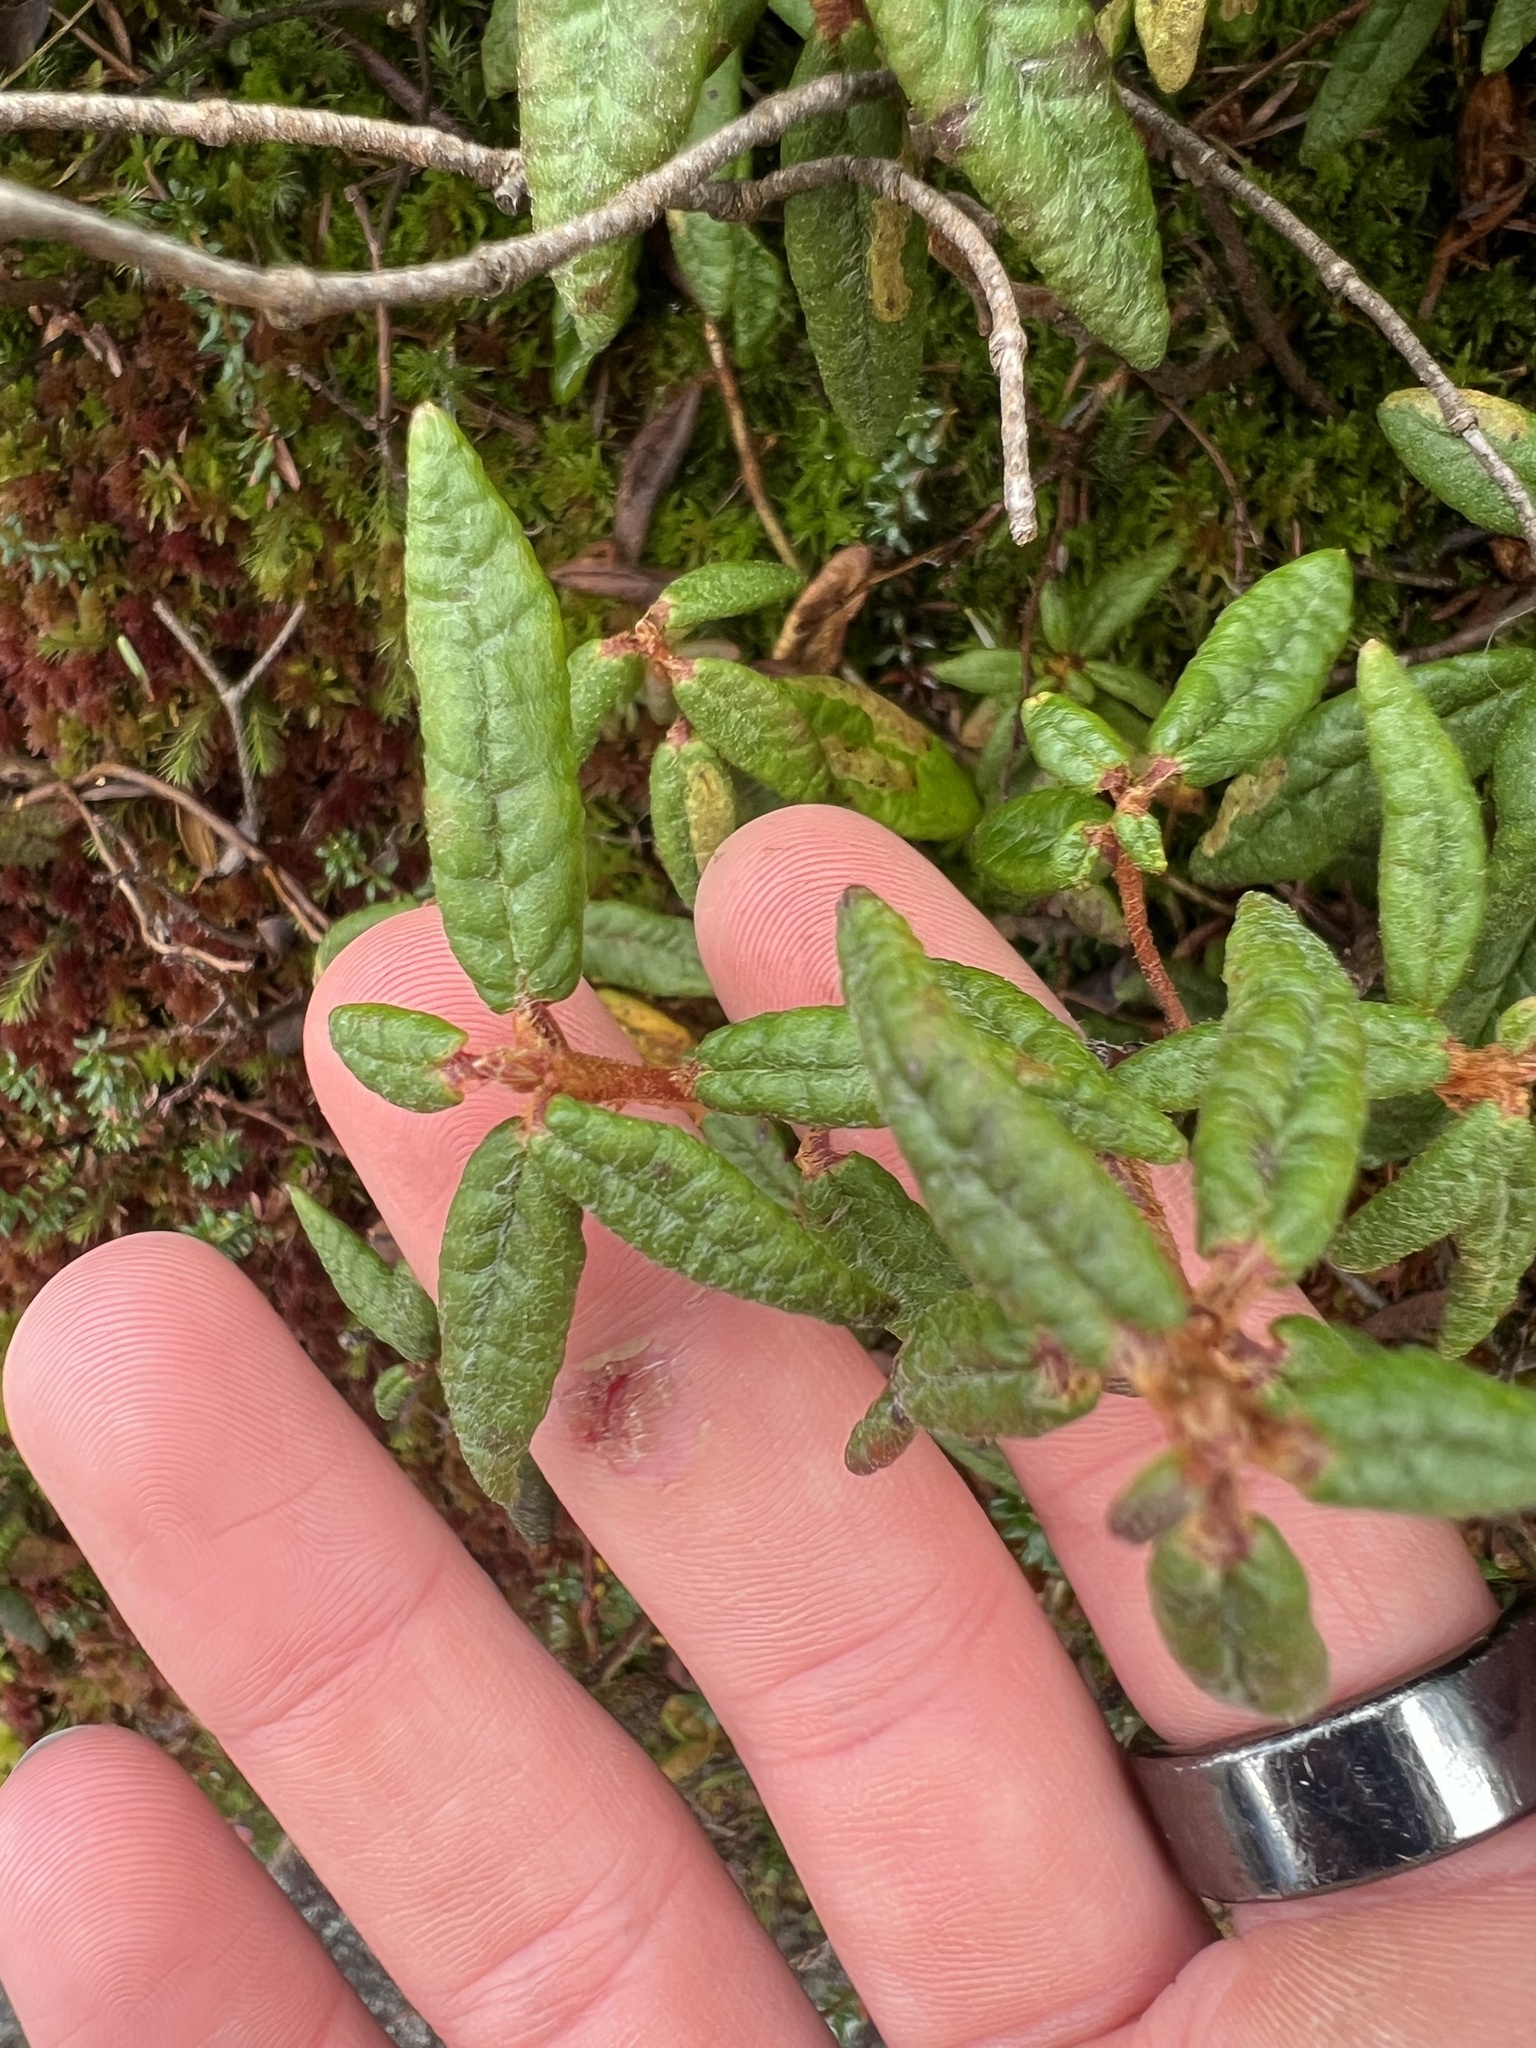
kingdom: Plantae
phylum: Tracheophyta
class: Magnoliopsida
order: Ericales
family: Ericaceae
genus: Rhododendron
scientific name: Rhododendron groenlandicum
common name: Bog labrador tea
